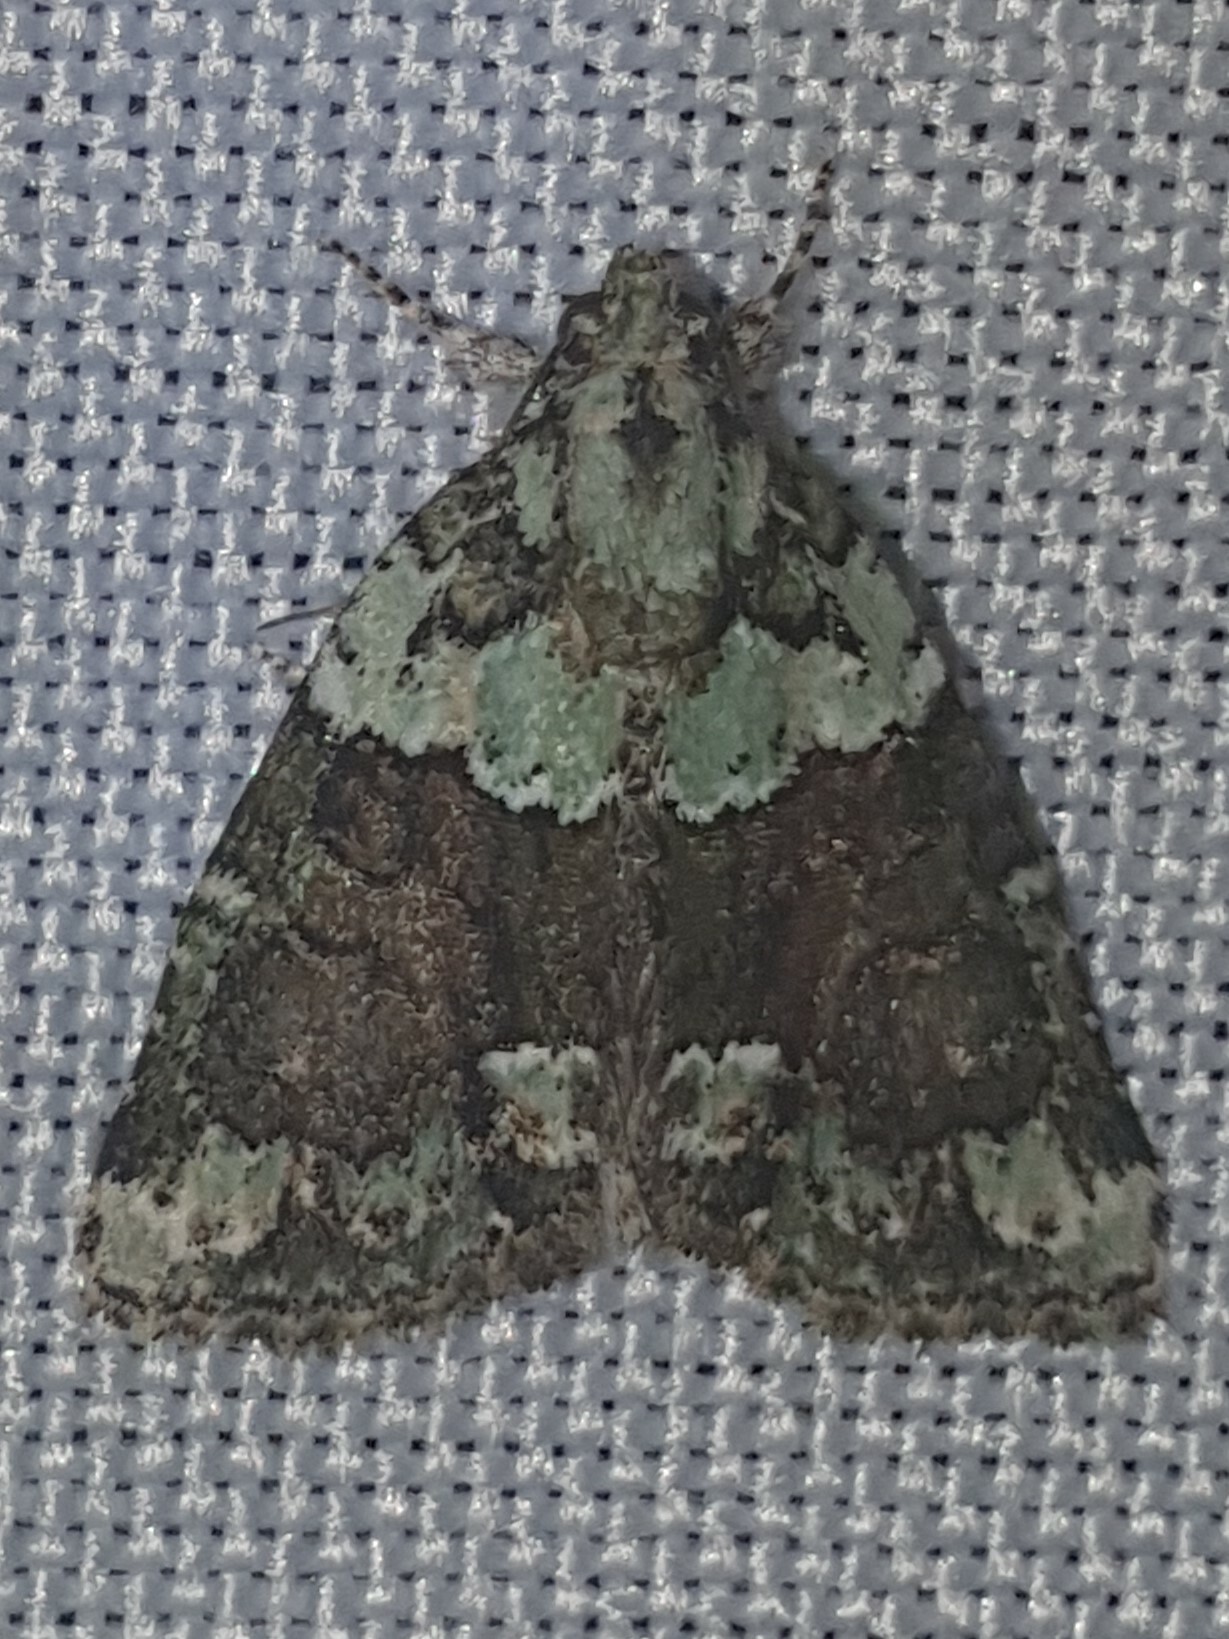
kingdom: Animalia
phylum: Arthropoda
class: Insecta
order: Lepidoptera
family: Noctuidae
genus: Cryphia
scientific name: Cryphia algae
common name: Tree-lichen beauty
